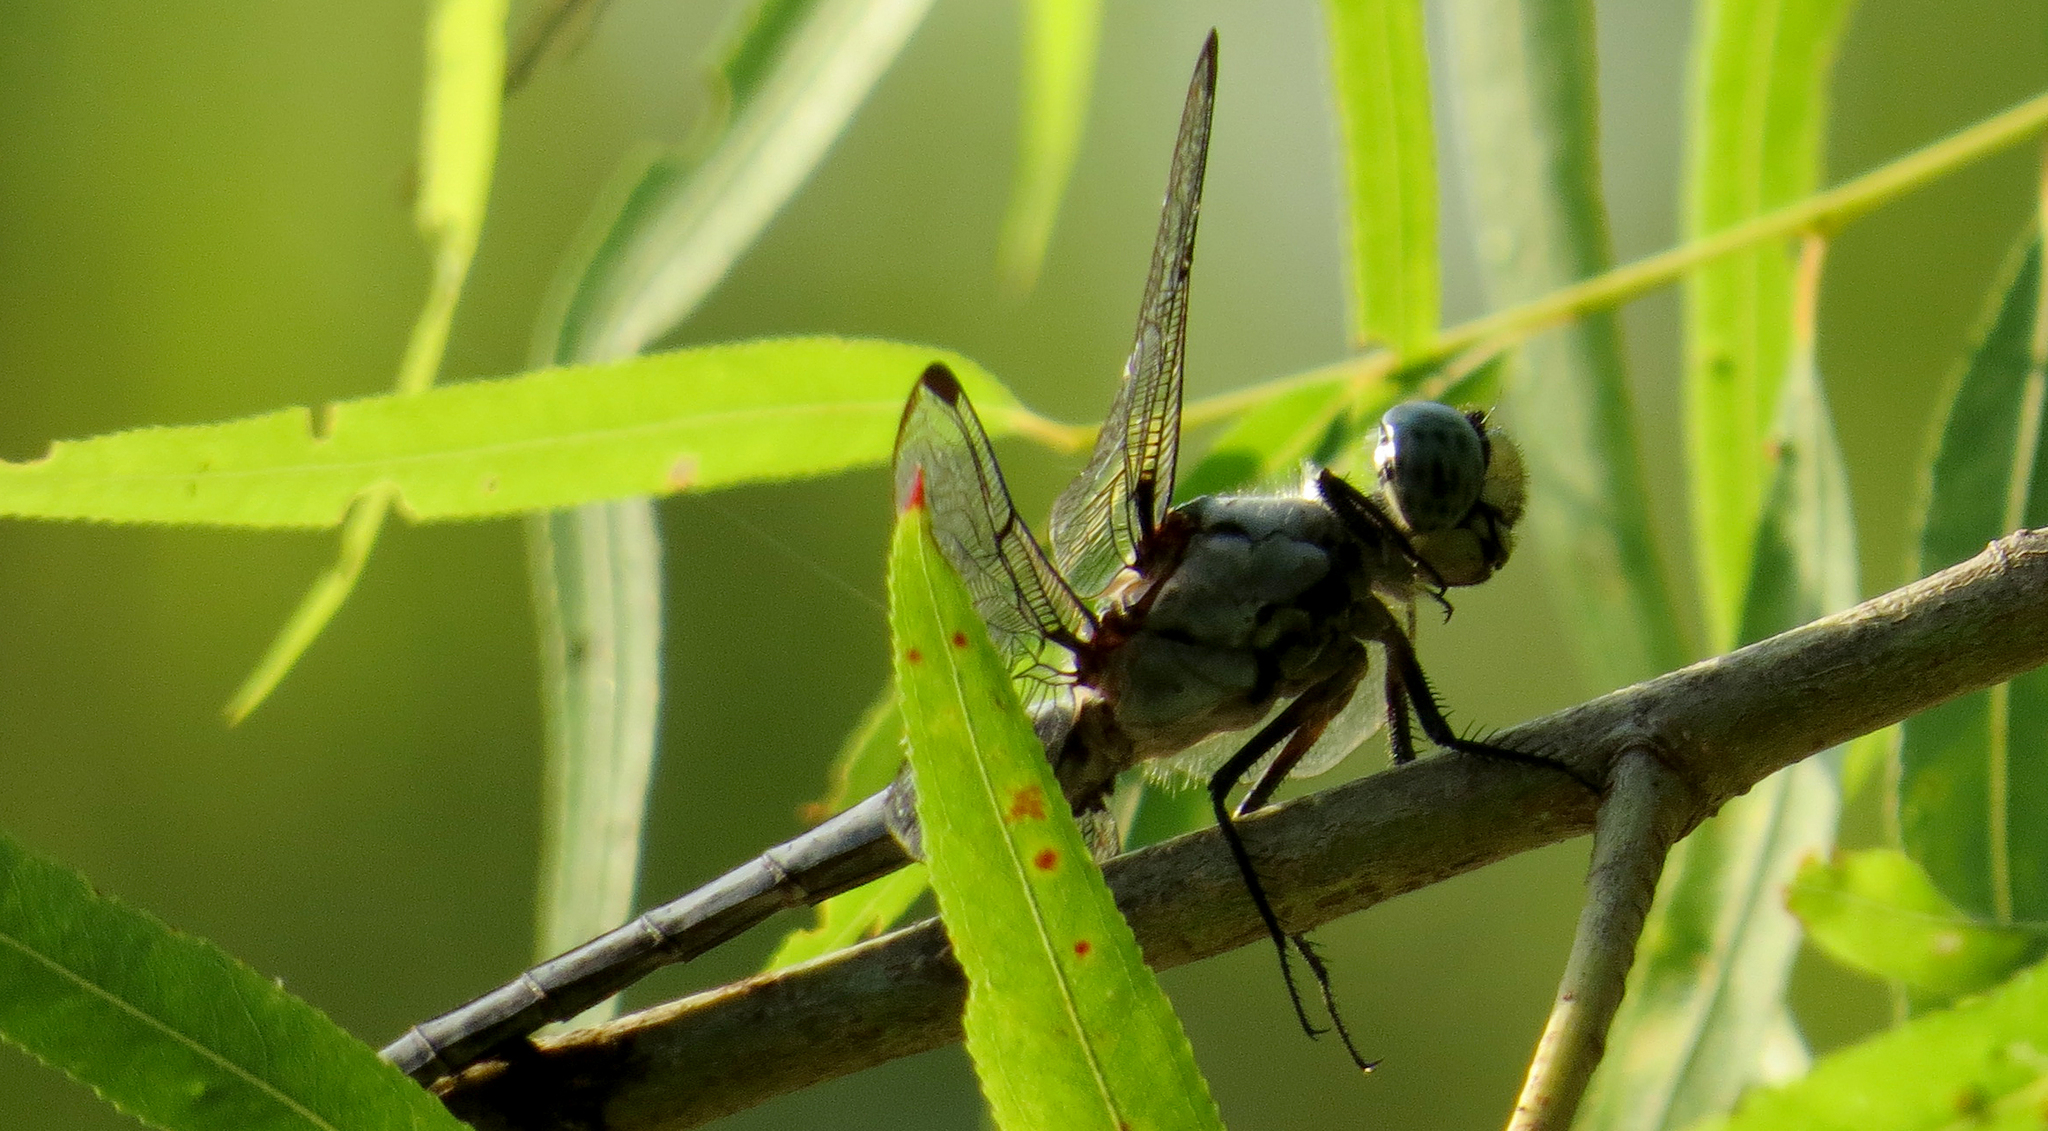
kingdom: Animalia
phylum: Arthropoda
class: Insecta
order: Odonata
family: Libellulidae
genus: Libellula
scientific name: Libellula vibrans
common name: Great blue skimmer
